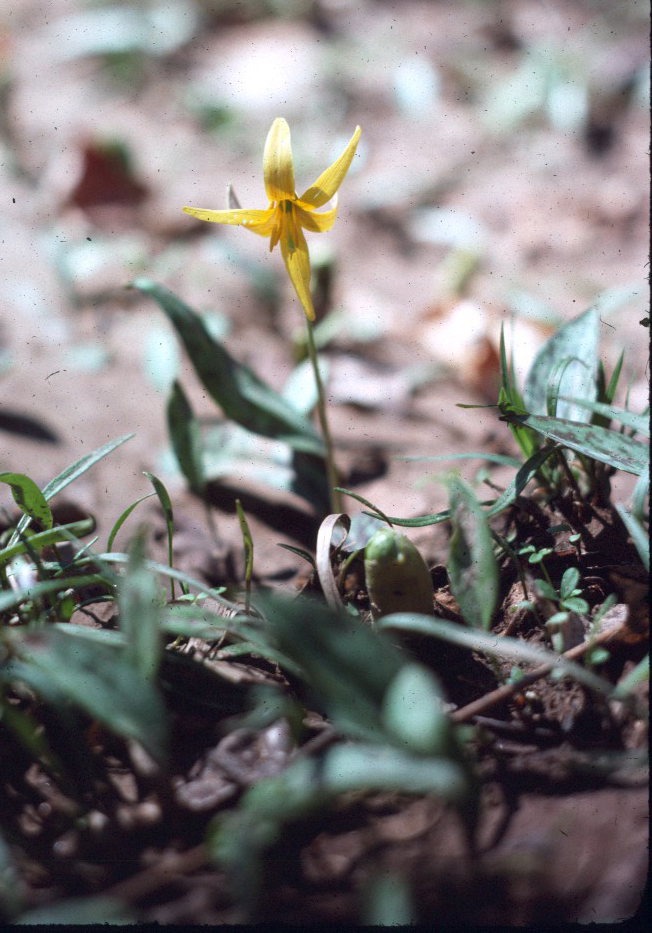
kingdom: Plantae
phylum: Tracheophyta
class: Liliopsida
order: Liliales
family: Liliaceae
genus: Erythronium
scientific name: Erythronium americanum
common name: Yellow adder's-tongue
